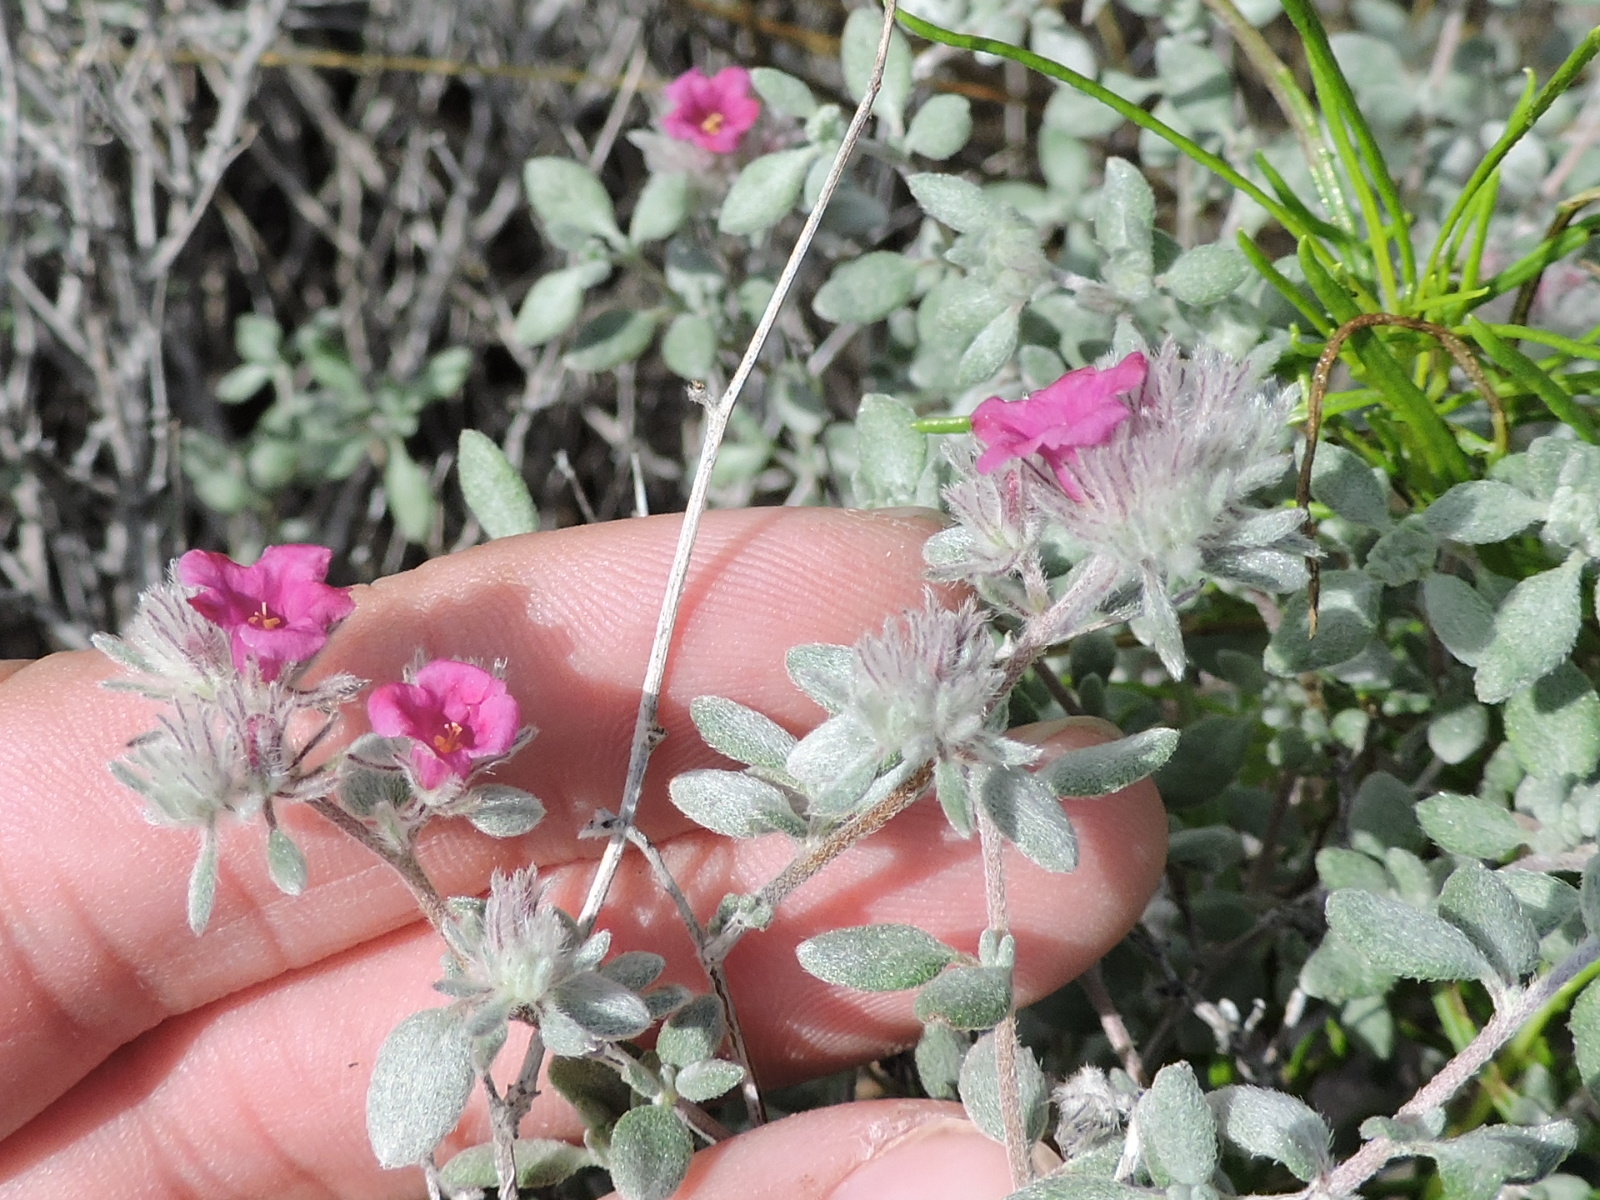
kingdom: Plantae
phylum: Tracheophyta
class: Magnoliopsida
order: Boraginales
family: Ehretiaceae
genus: Tiquilia
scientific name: Tiquilia greggii
